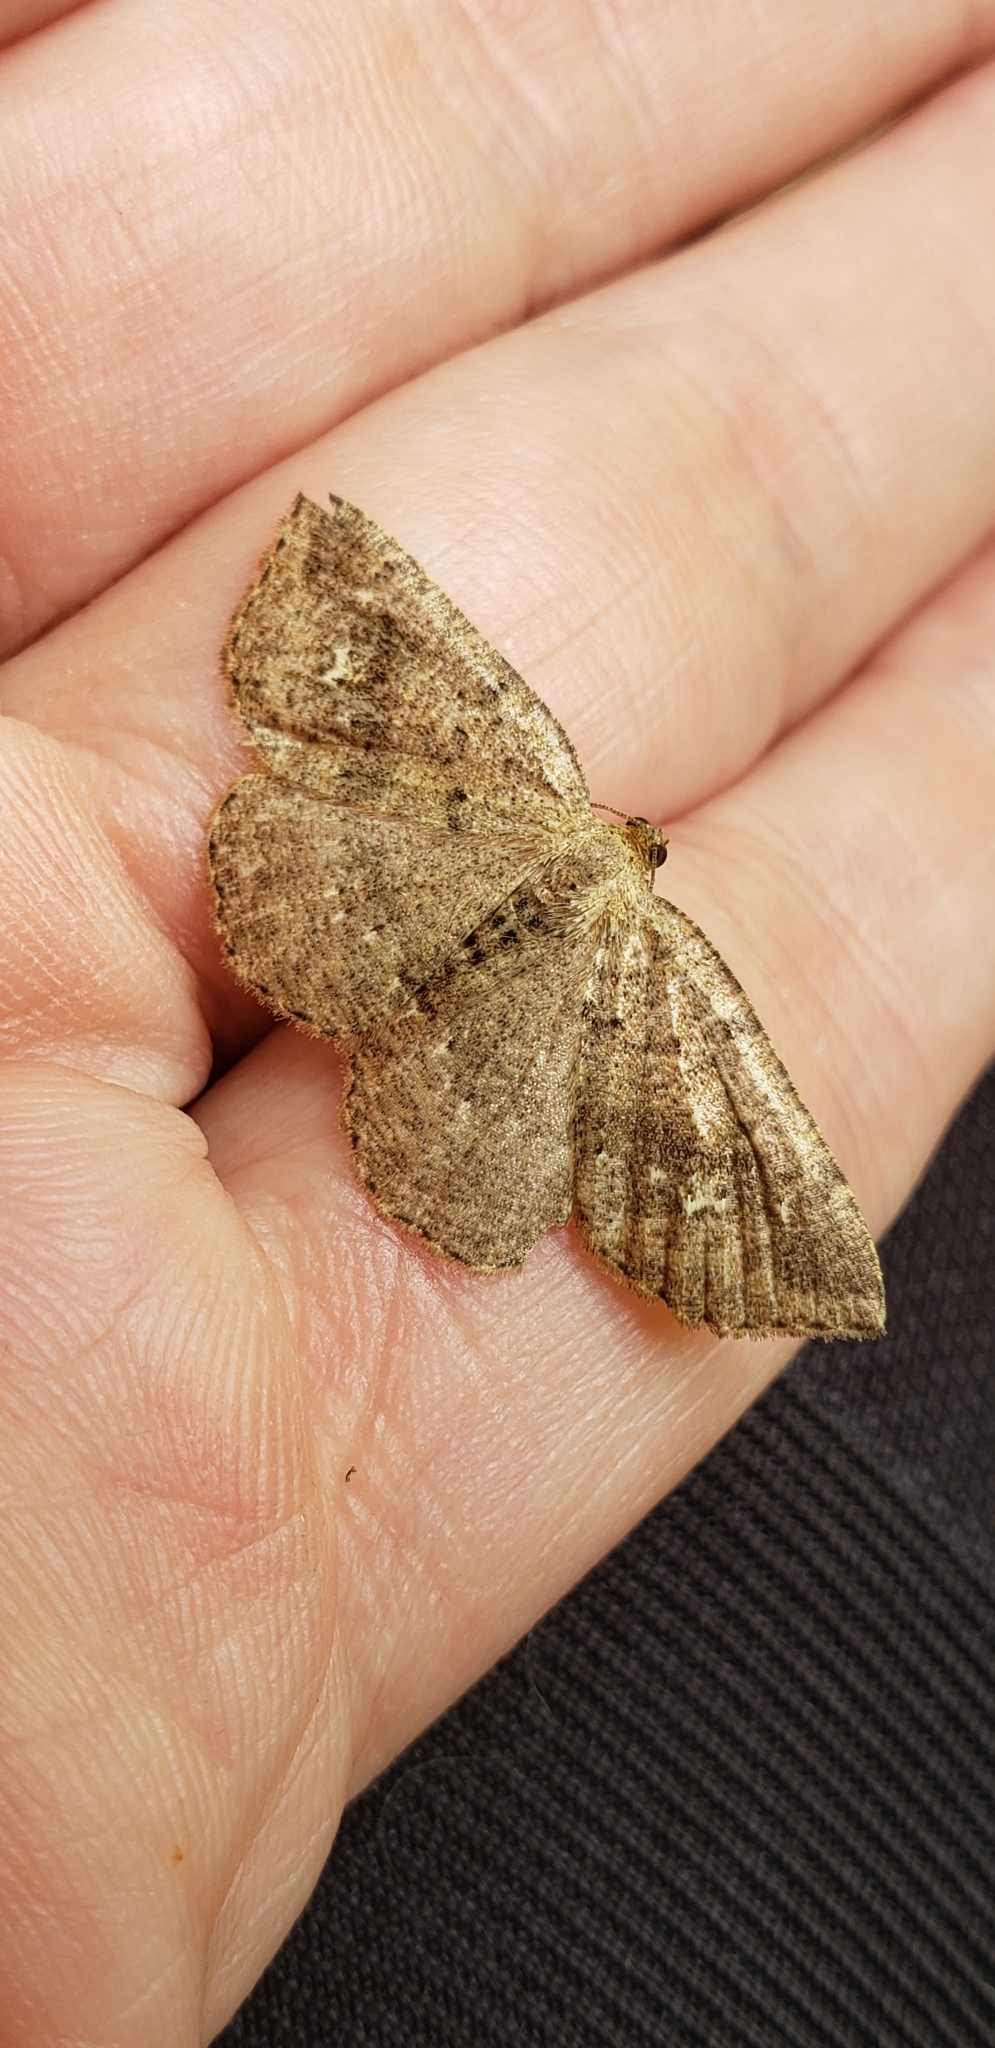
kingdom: Animalia
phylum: Arthropoda
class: Insecta
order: Lepidoptera
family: Geometridae
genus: Homochlodes
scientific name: Homochlodes fritillaria
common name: Pale homochlodes
